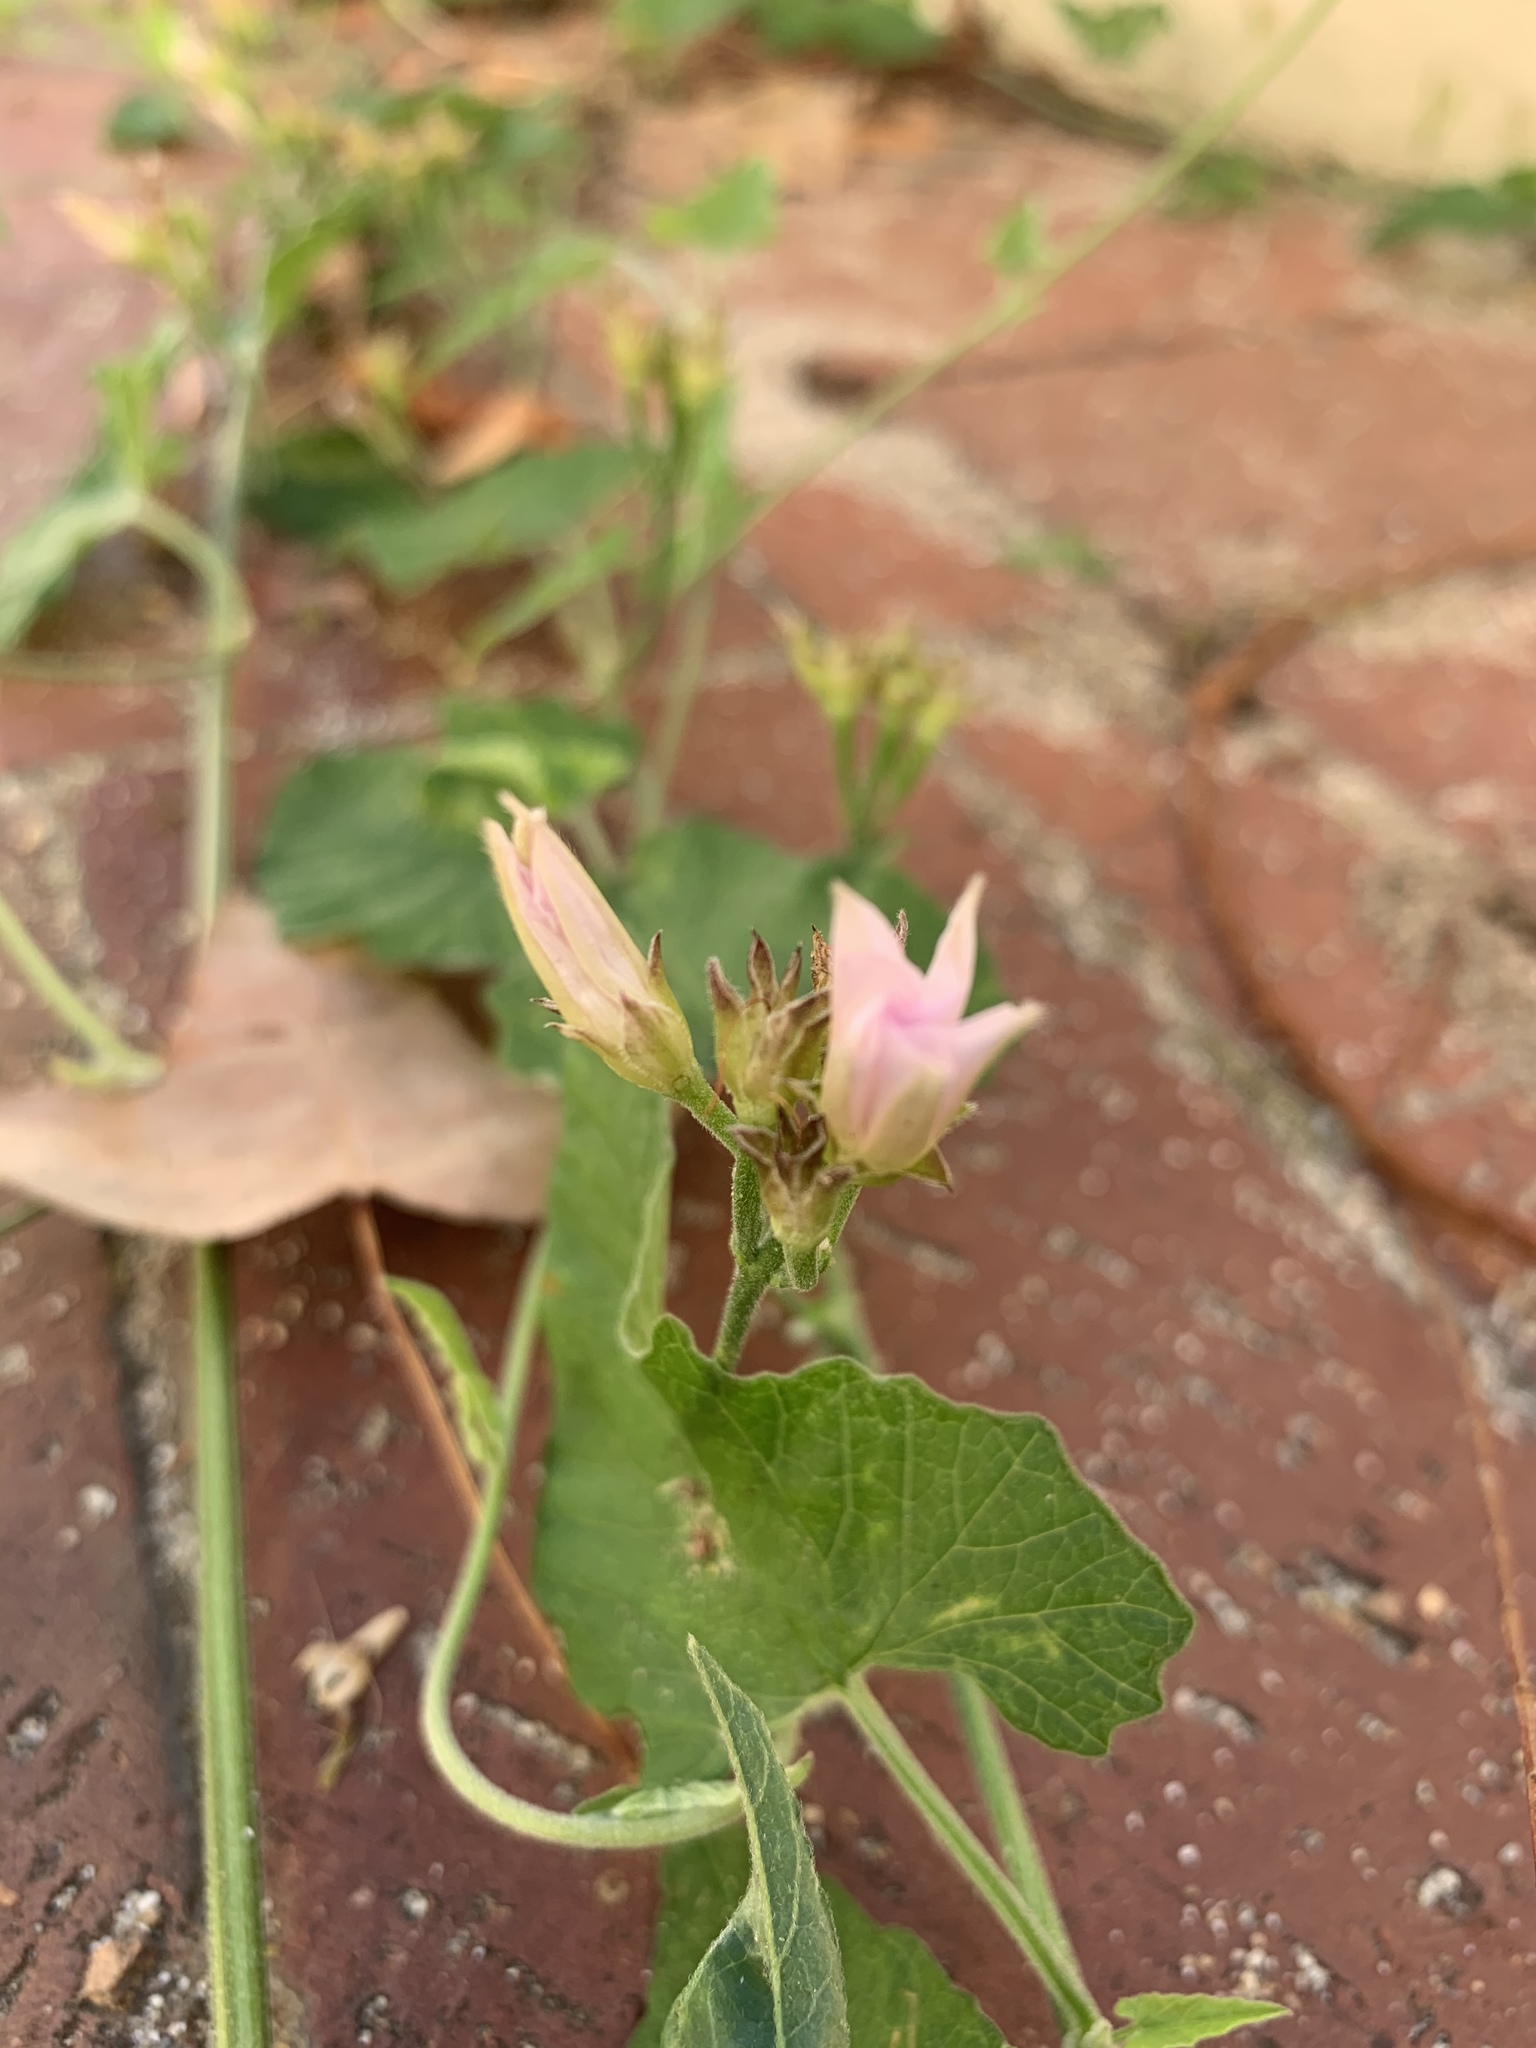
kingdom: Plantae
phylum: Tracheophyta
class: Magnoliopsida
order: Solanales
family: Convolvulaceae
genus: Convolvulus
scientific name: Convolvulus farinosus
